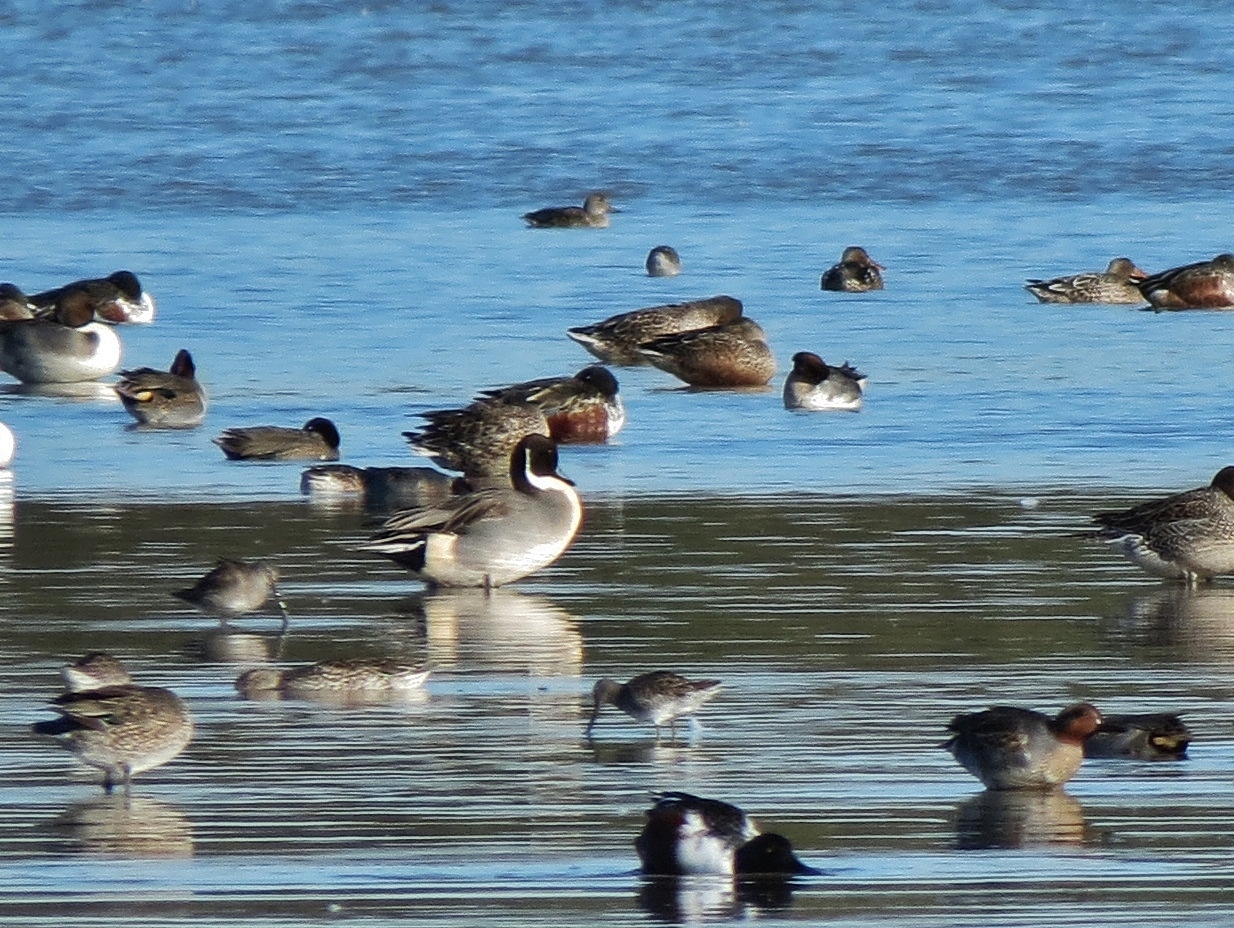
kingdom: Animalia
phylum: Chordata
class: Aves
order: Anseriformes
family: Anatidae
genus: Anas
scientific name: Anas acuta
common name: Northern pintail
